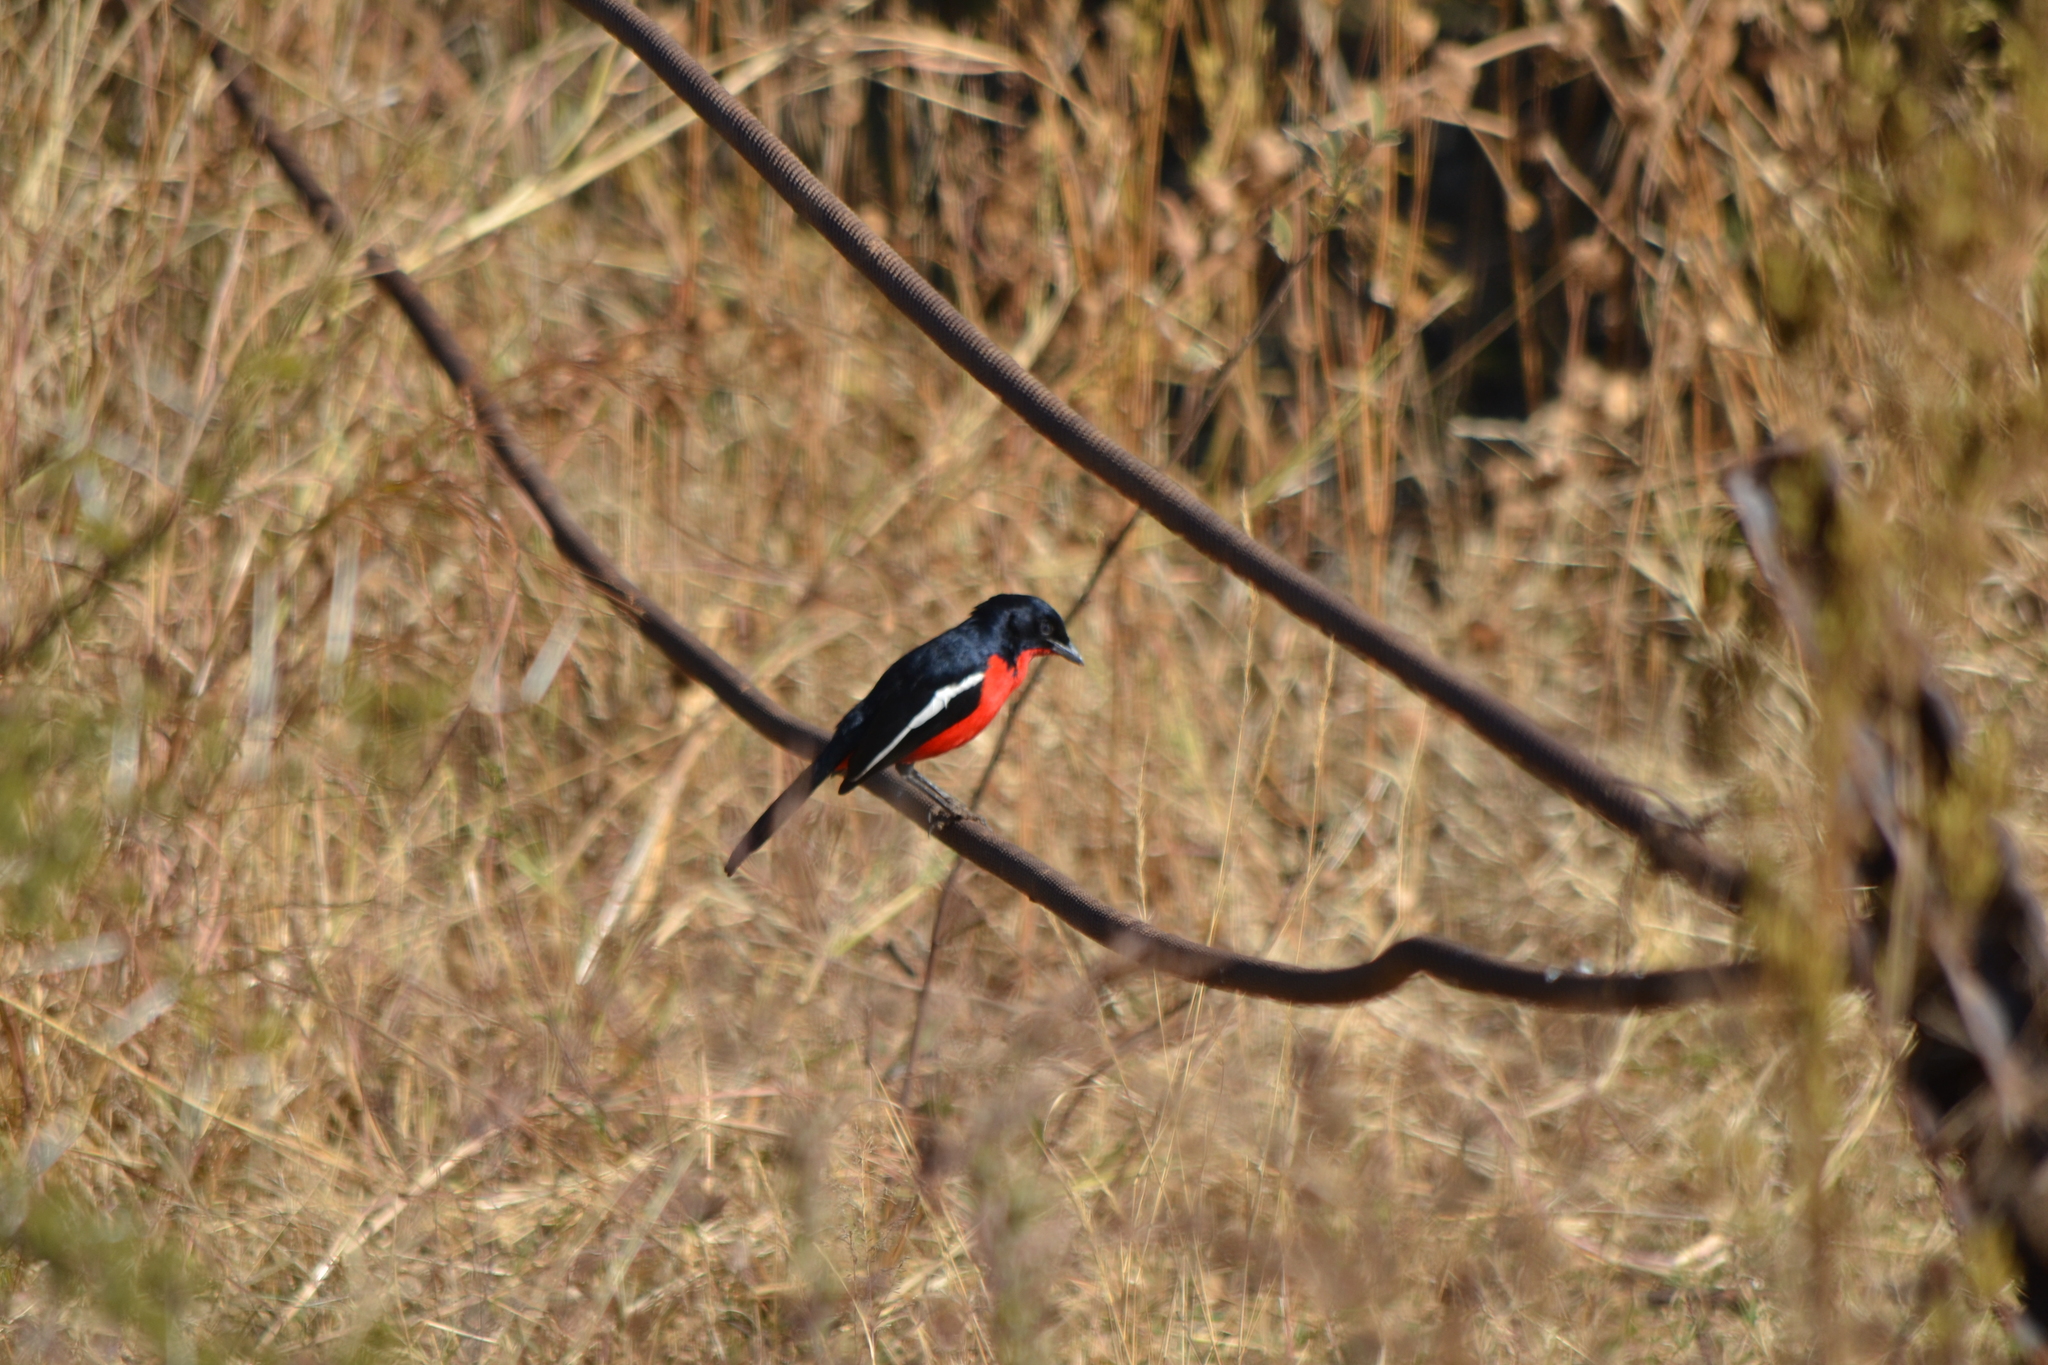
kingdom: Animalia
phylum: Chordata
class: Aves
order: Passeriformes
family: Malaconotidae
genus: Laniarius
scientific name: Laniarius atrococcineus
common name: Crimson-breasted shrike
